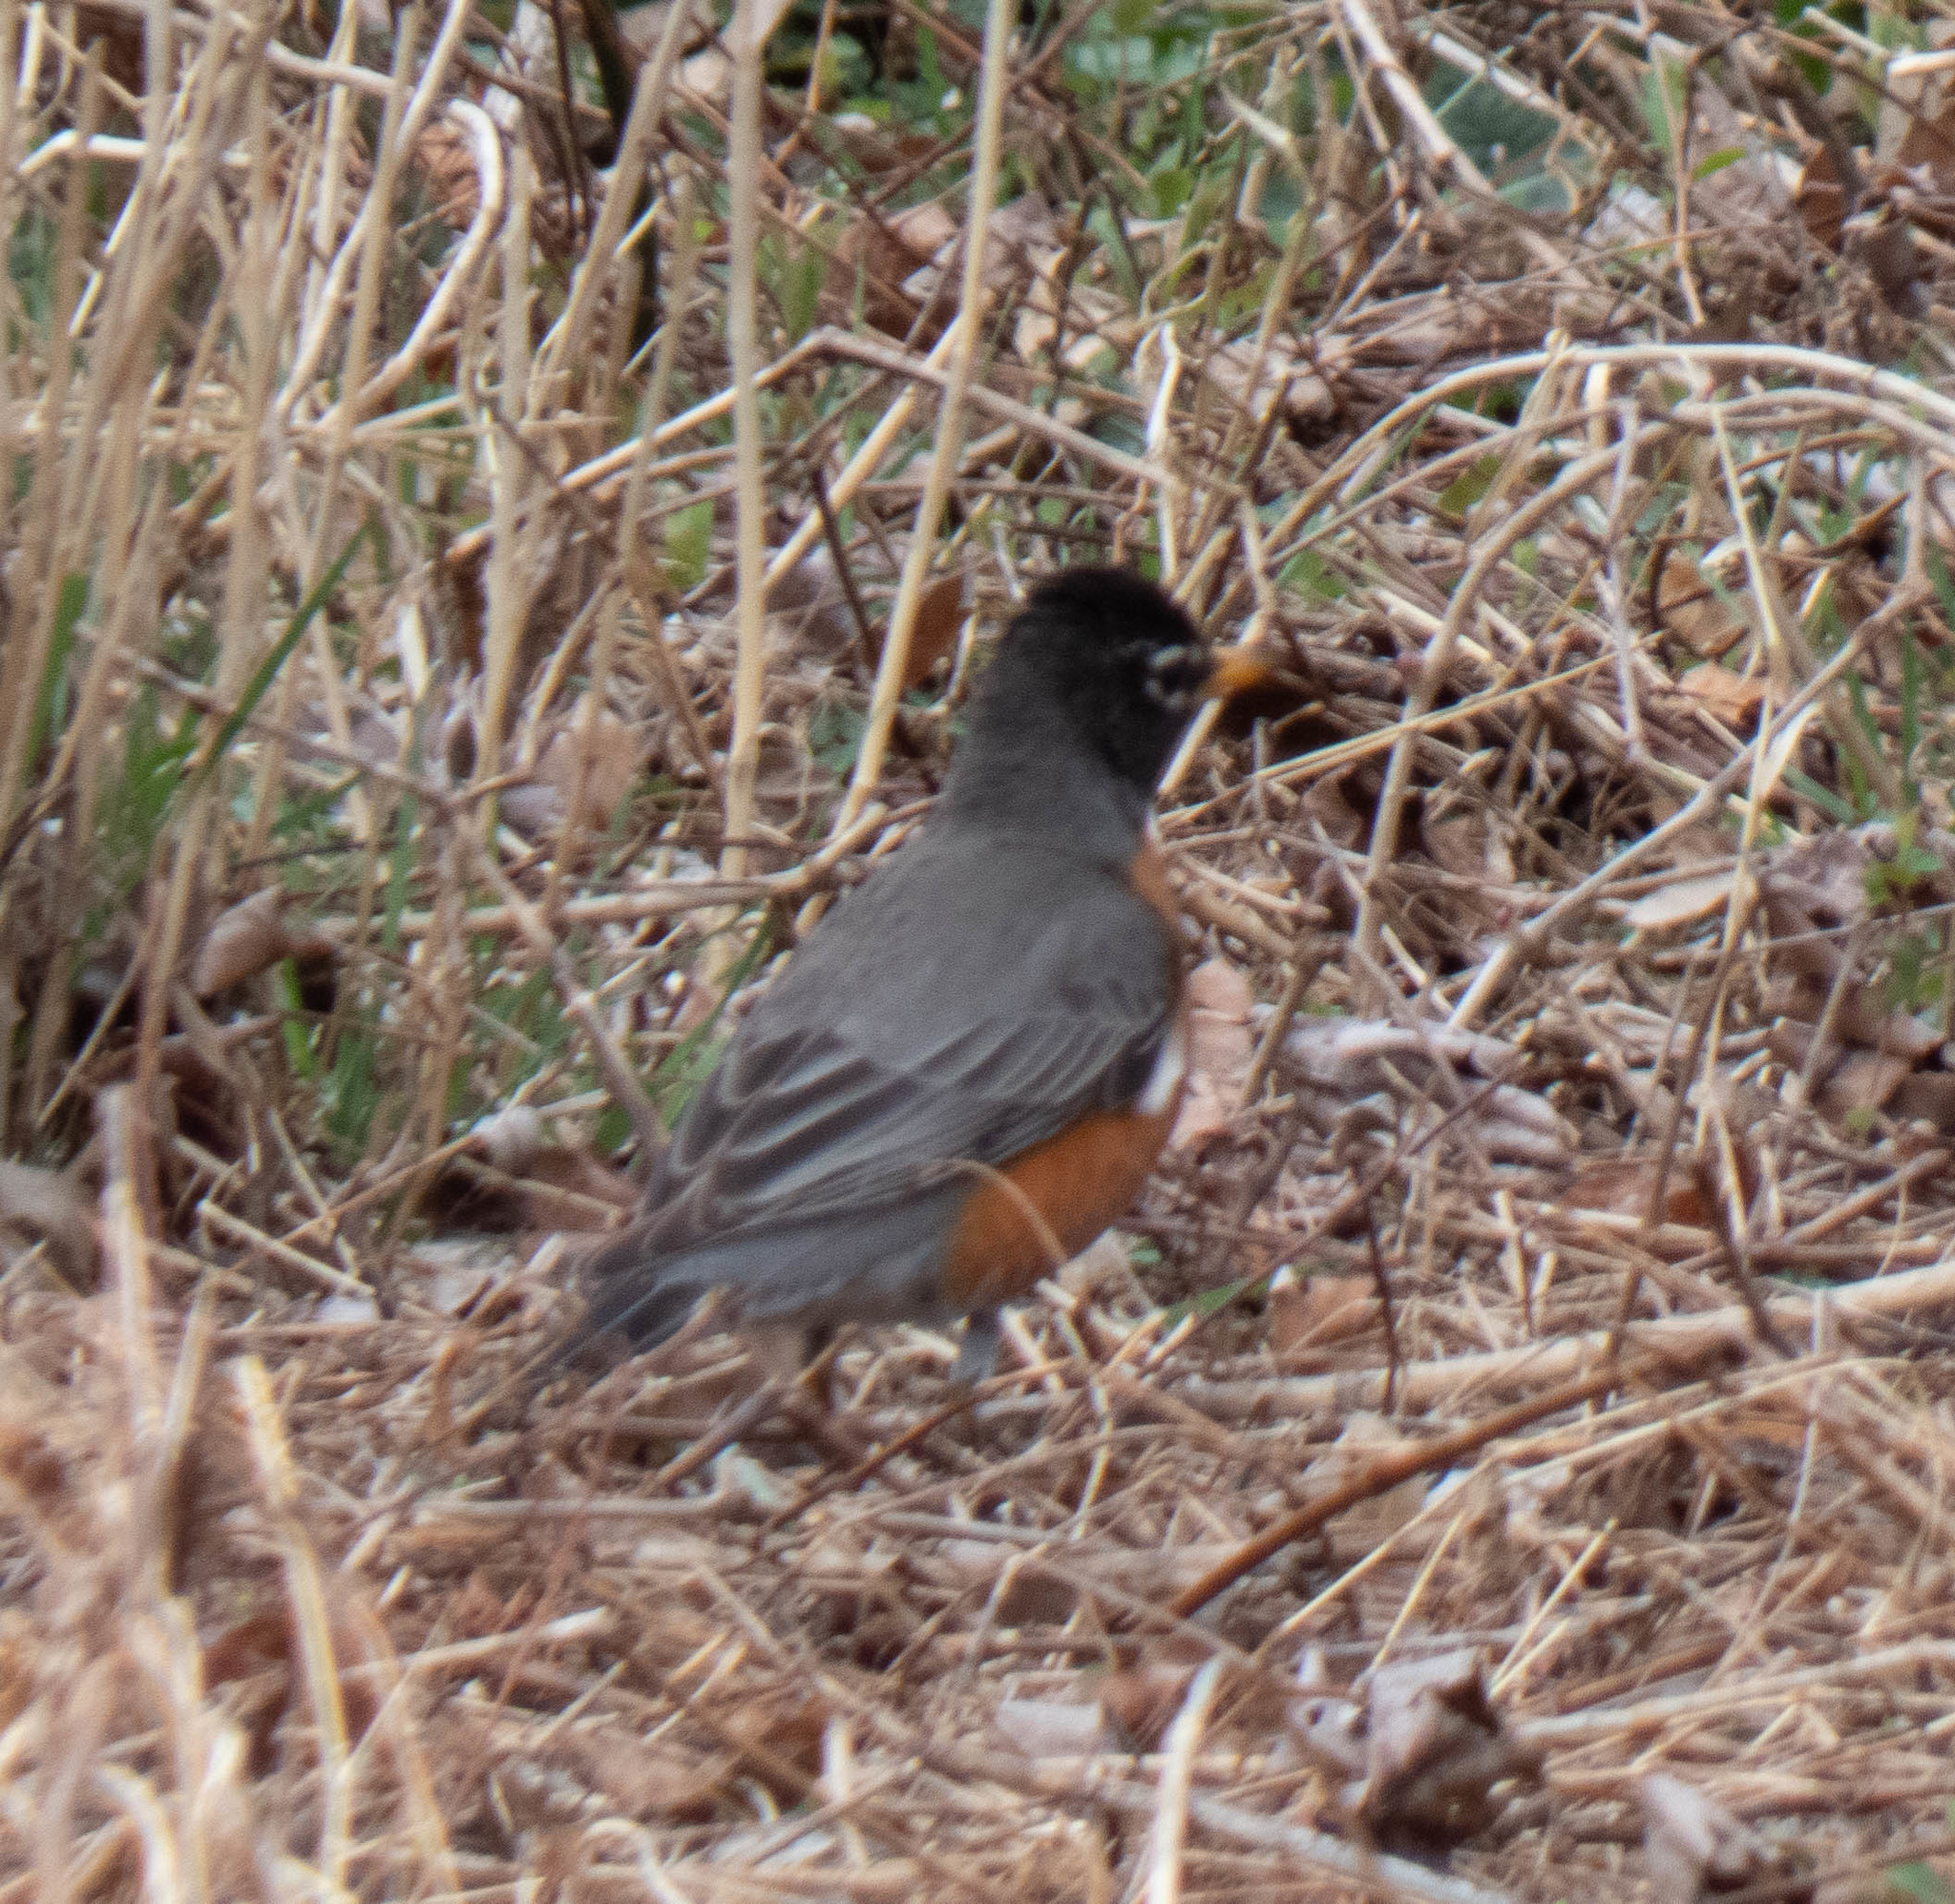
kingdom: Animalia
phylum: Chordata
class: Aves
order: Passeriformes
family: Turdidae
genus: Turdus
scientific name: Turdus migratorius
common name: American robin
